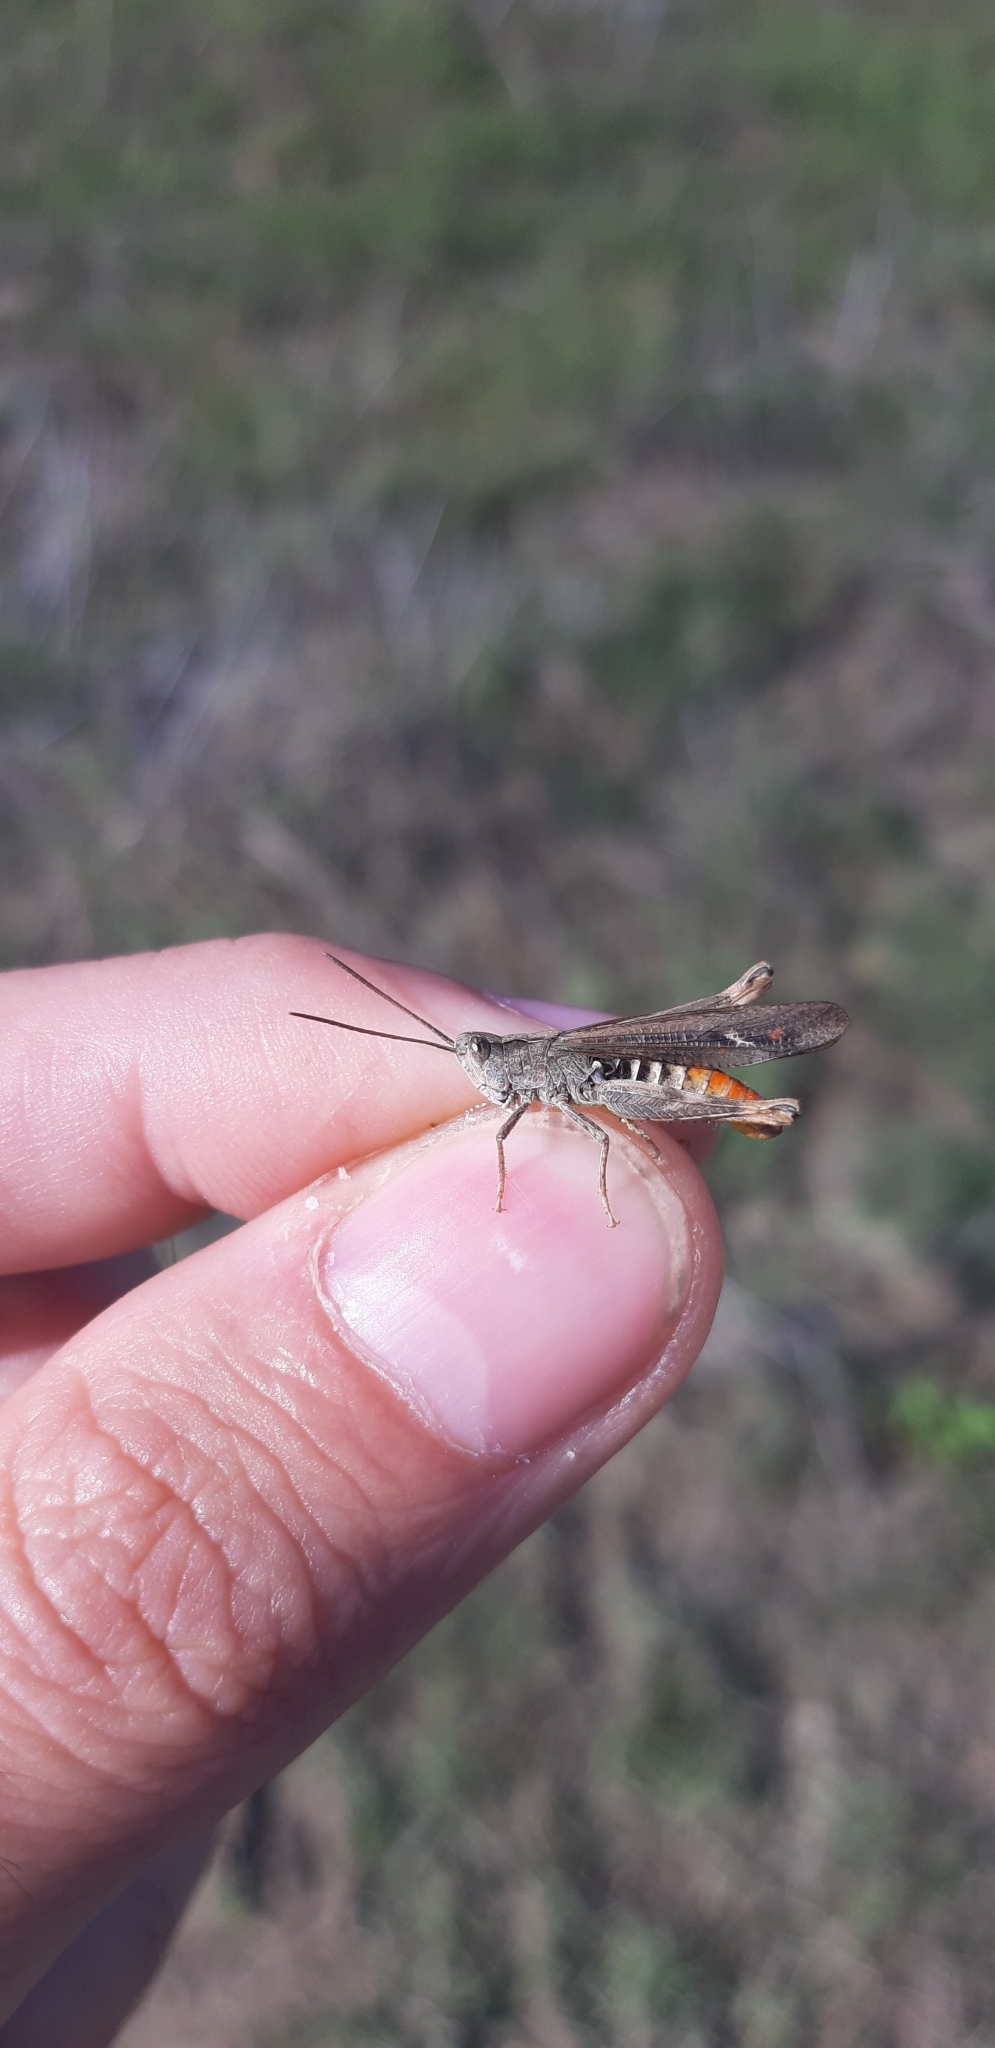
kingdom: Animalia
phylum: Arthropoda
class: Insecta
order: Orthoptera
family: Acrididae
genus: Chorthippus
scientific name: Chorthippus brunneus
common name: Field grasshopper
